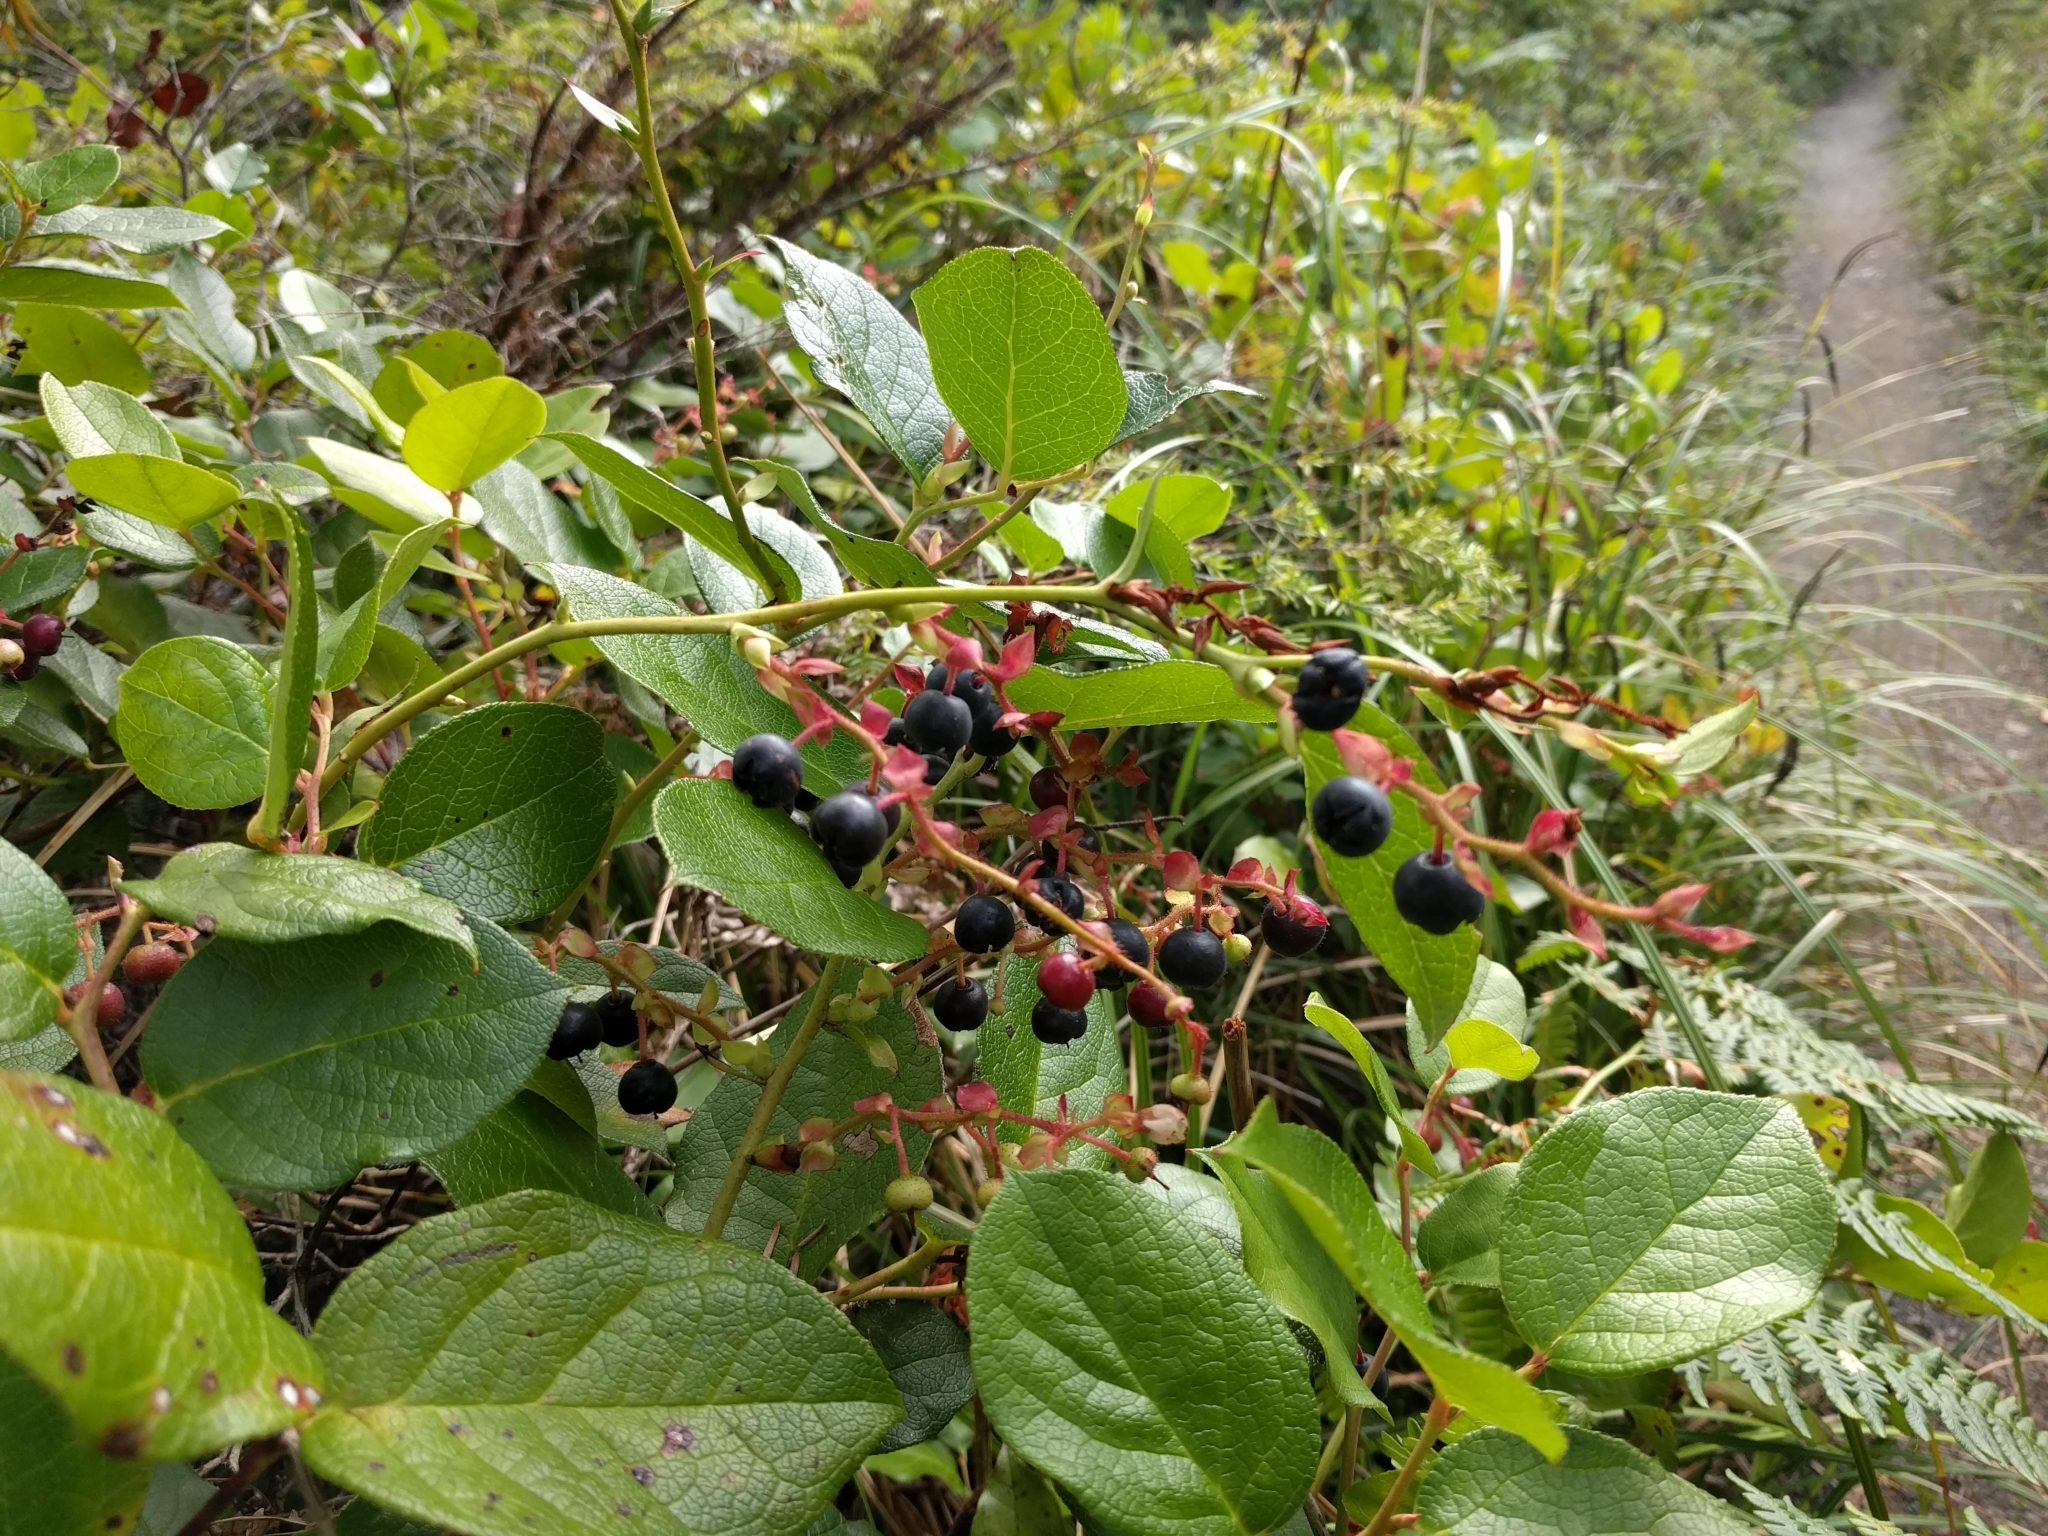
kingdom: Plantae
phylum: Tracheophyta
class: Magnoliopsida
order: Ericales
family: Ericaceae
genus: Gaultheria
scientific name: Gaultheria shallon
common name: Shallon
